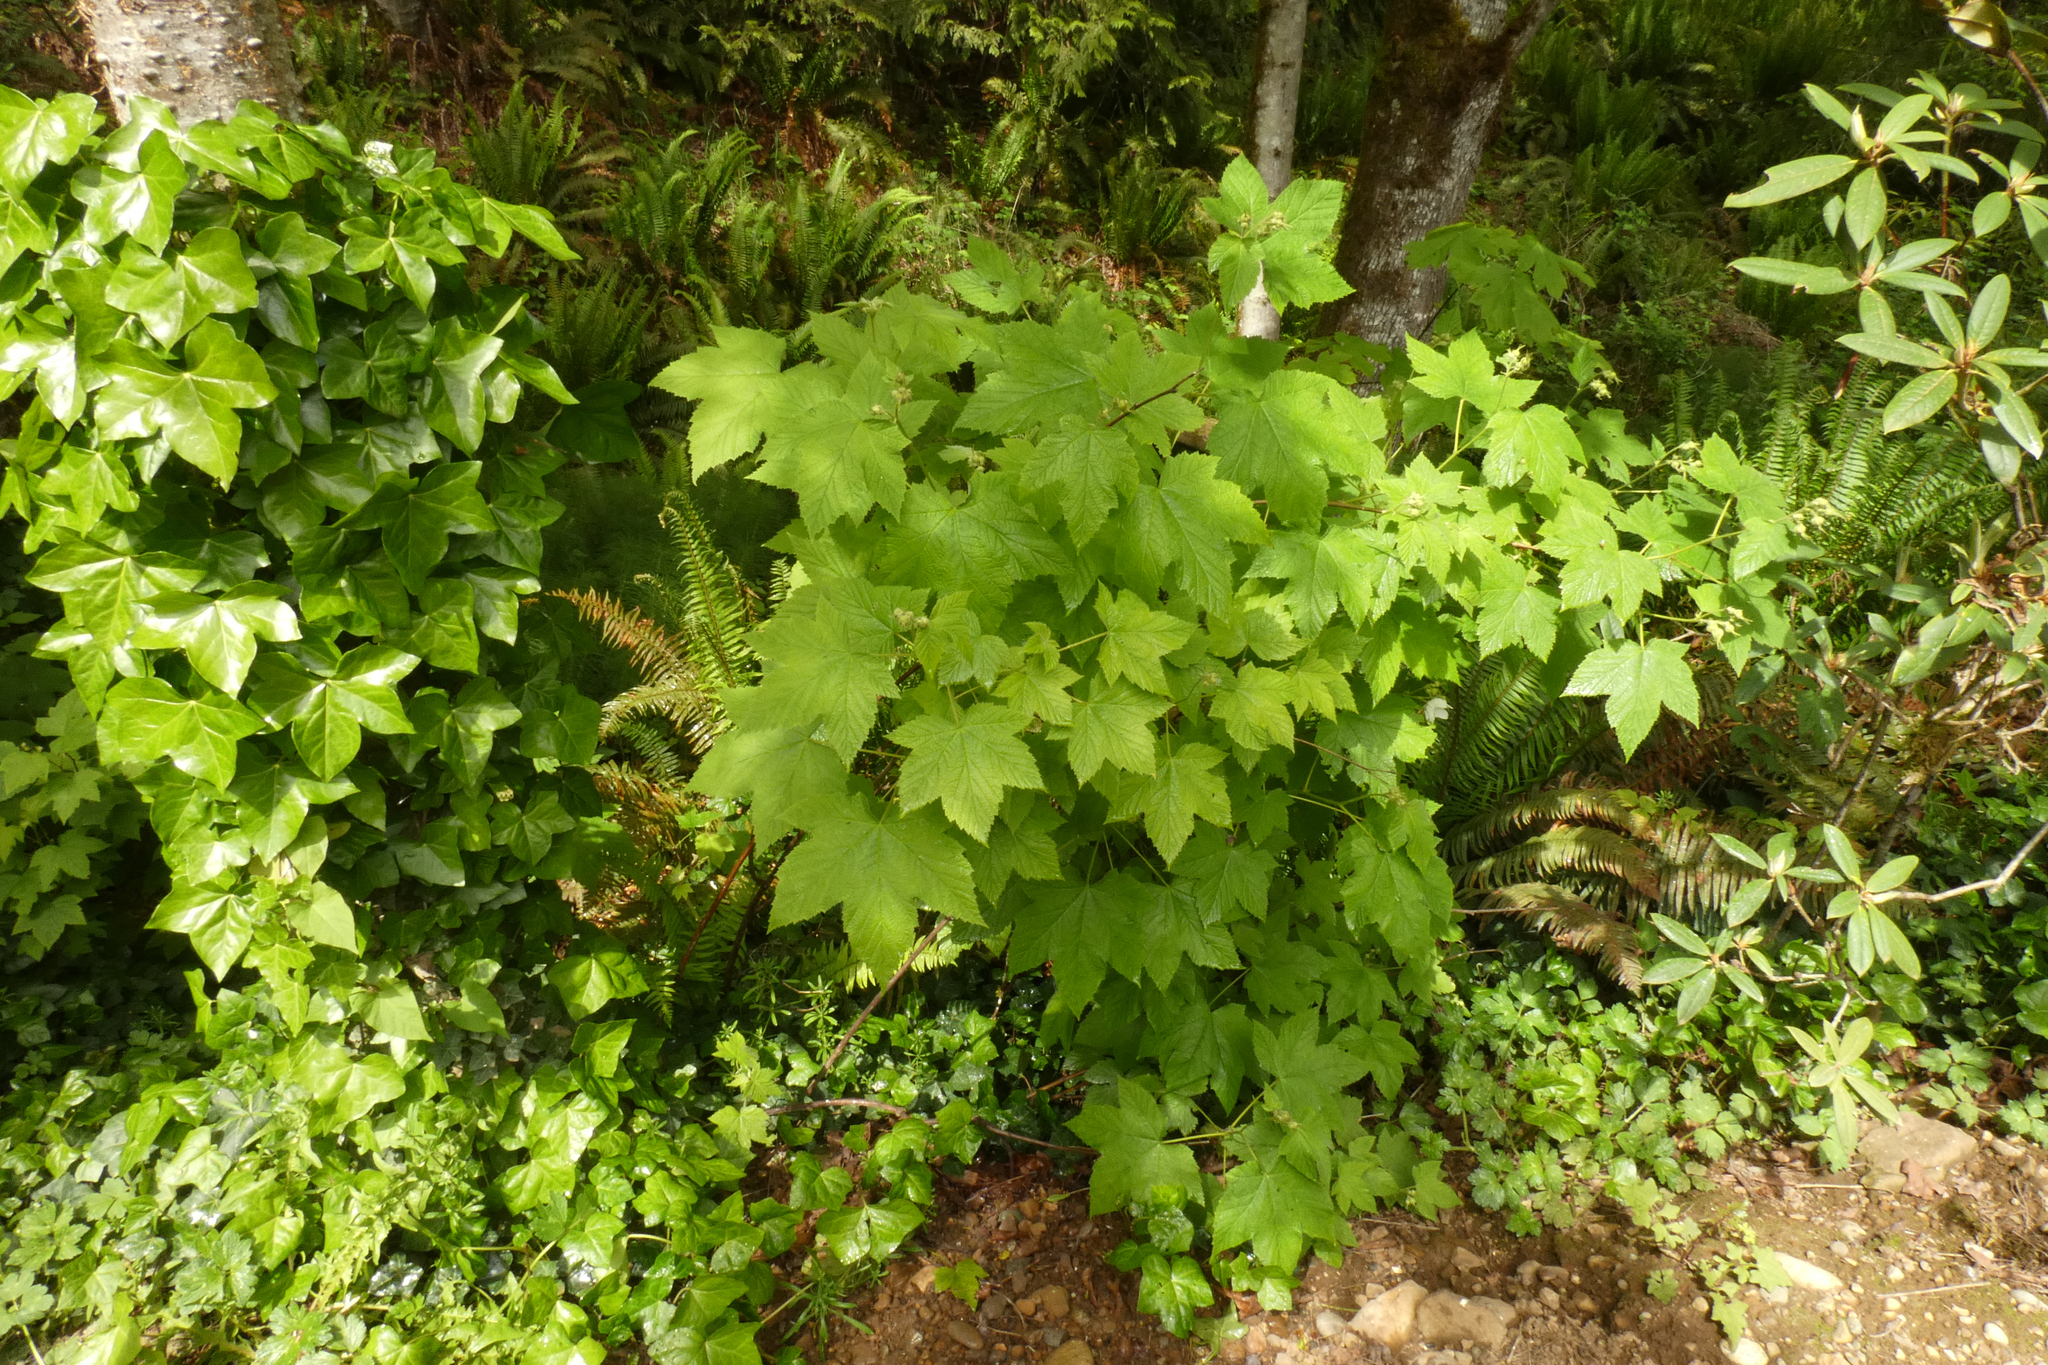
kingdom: Plantae
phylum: Tracheophyta
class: Magnoliopsida
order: Rosales
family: Rosaceae
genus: Rubus
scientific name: Rubus parviflorus
